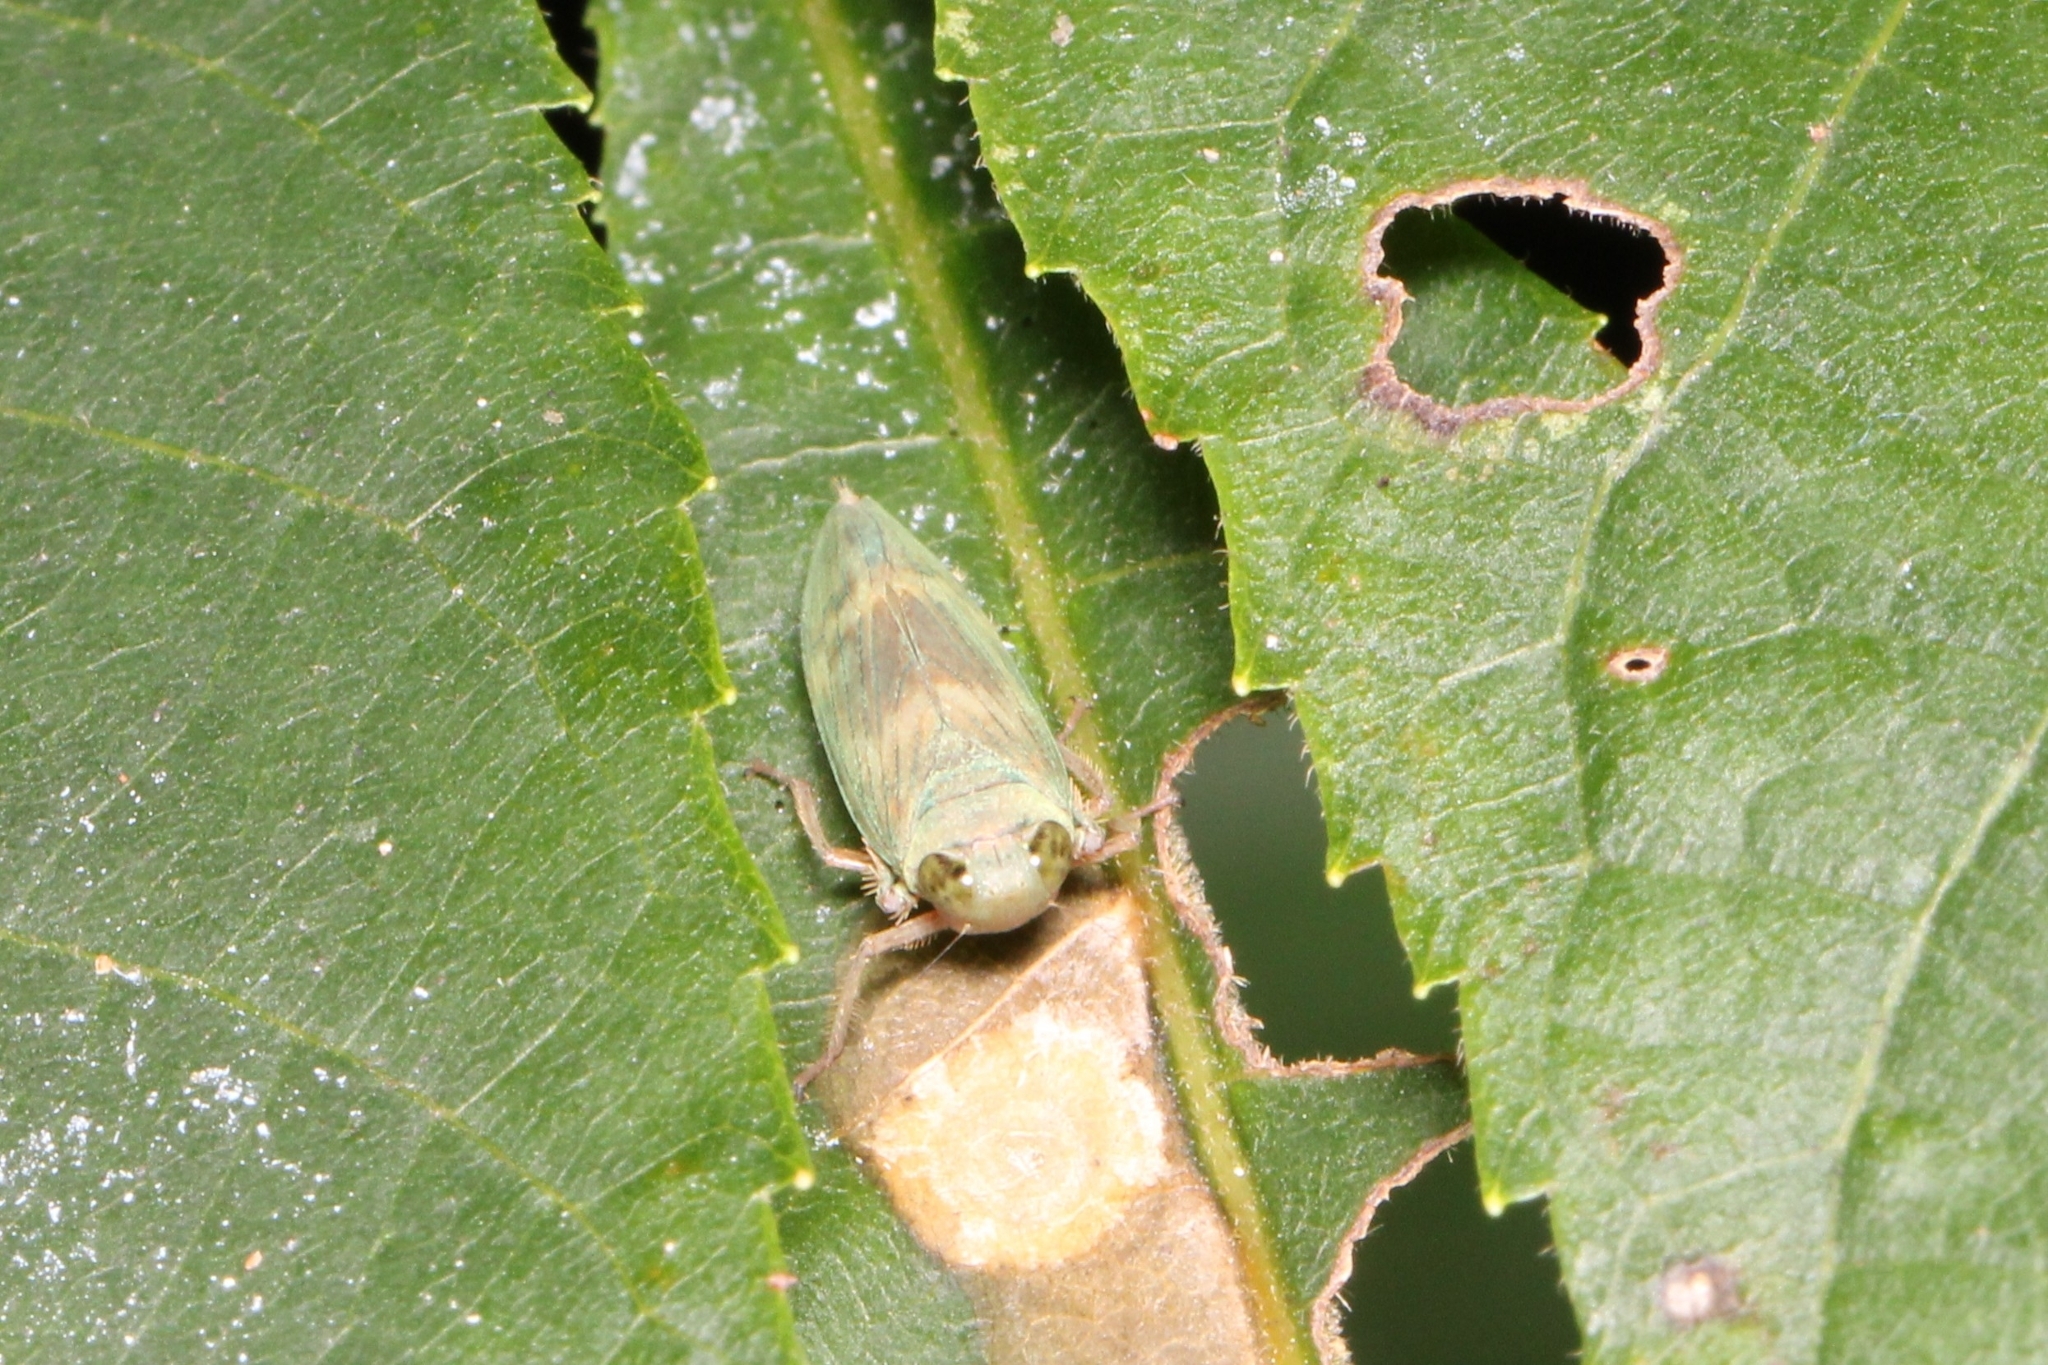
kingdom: Animalia
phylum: Arthropoda
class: Insecta
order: Hemiptera
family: Cicadellidae
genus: Jikradia
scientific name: Jikradia olitoria
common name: Coppery leafhopper
